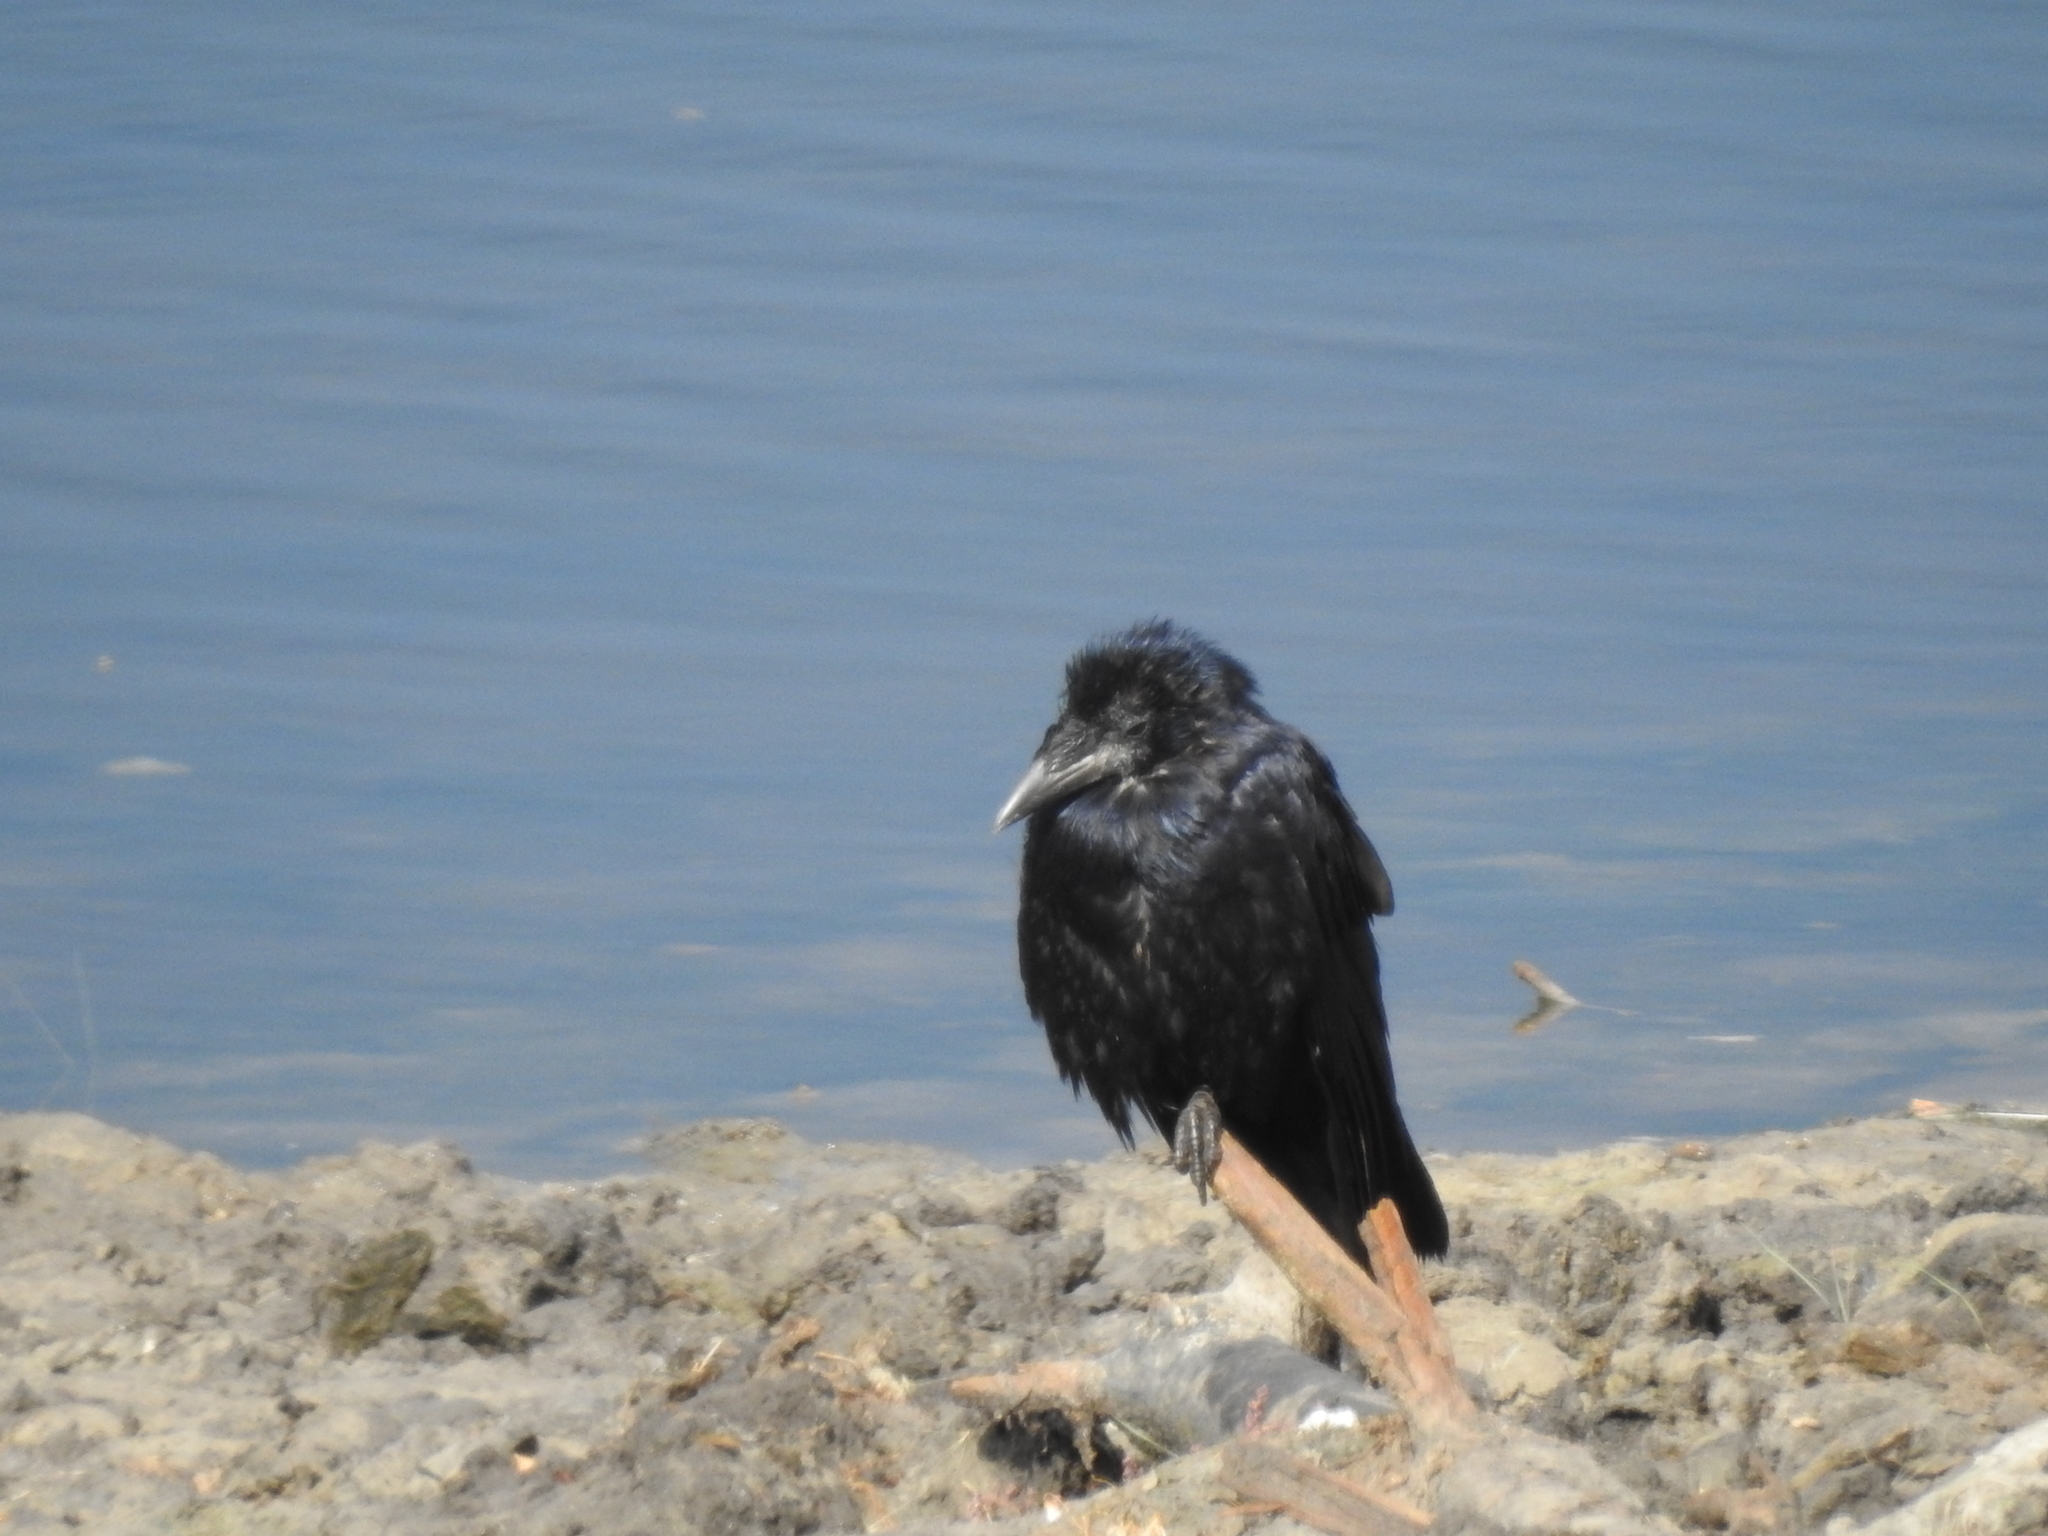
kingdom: Animalia
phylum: Chordata
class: Aves
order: Passeriformes
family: Corvidae
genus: Corvus
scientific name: Corvus frugilegus
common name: Rook
